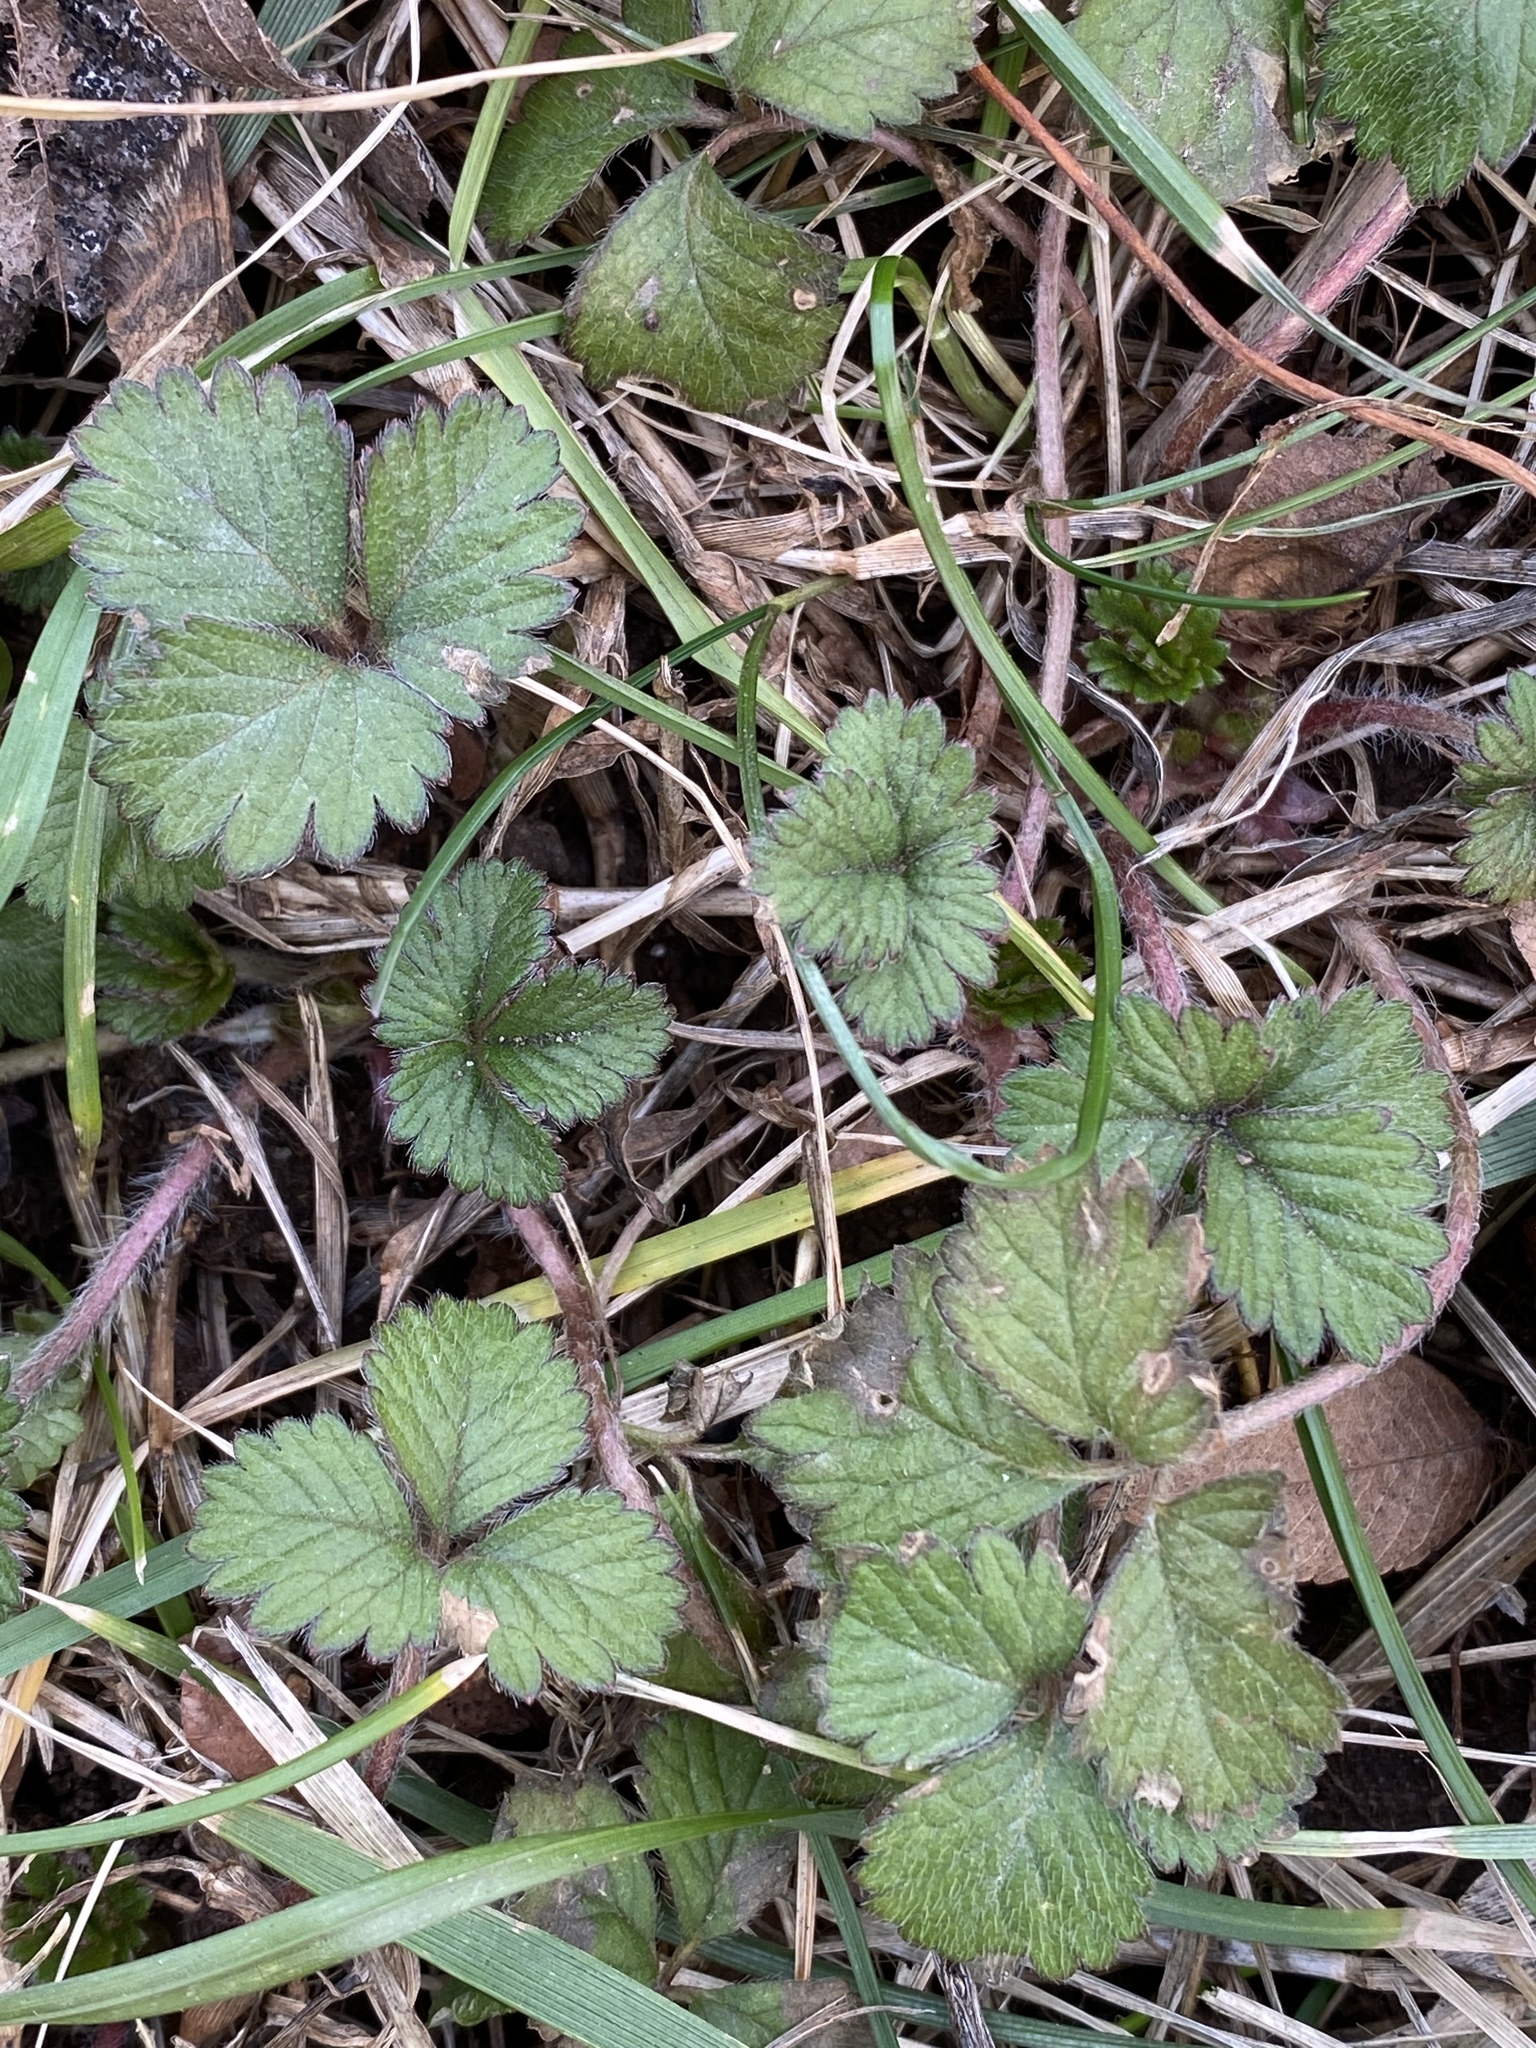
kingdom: Plantae
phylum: Tracheophyta
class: Magnoliopsida
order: Rosales
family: Rosaceae
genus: Potentilla
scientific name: Potentilla indica
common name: Yellow-flowered strawberry
